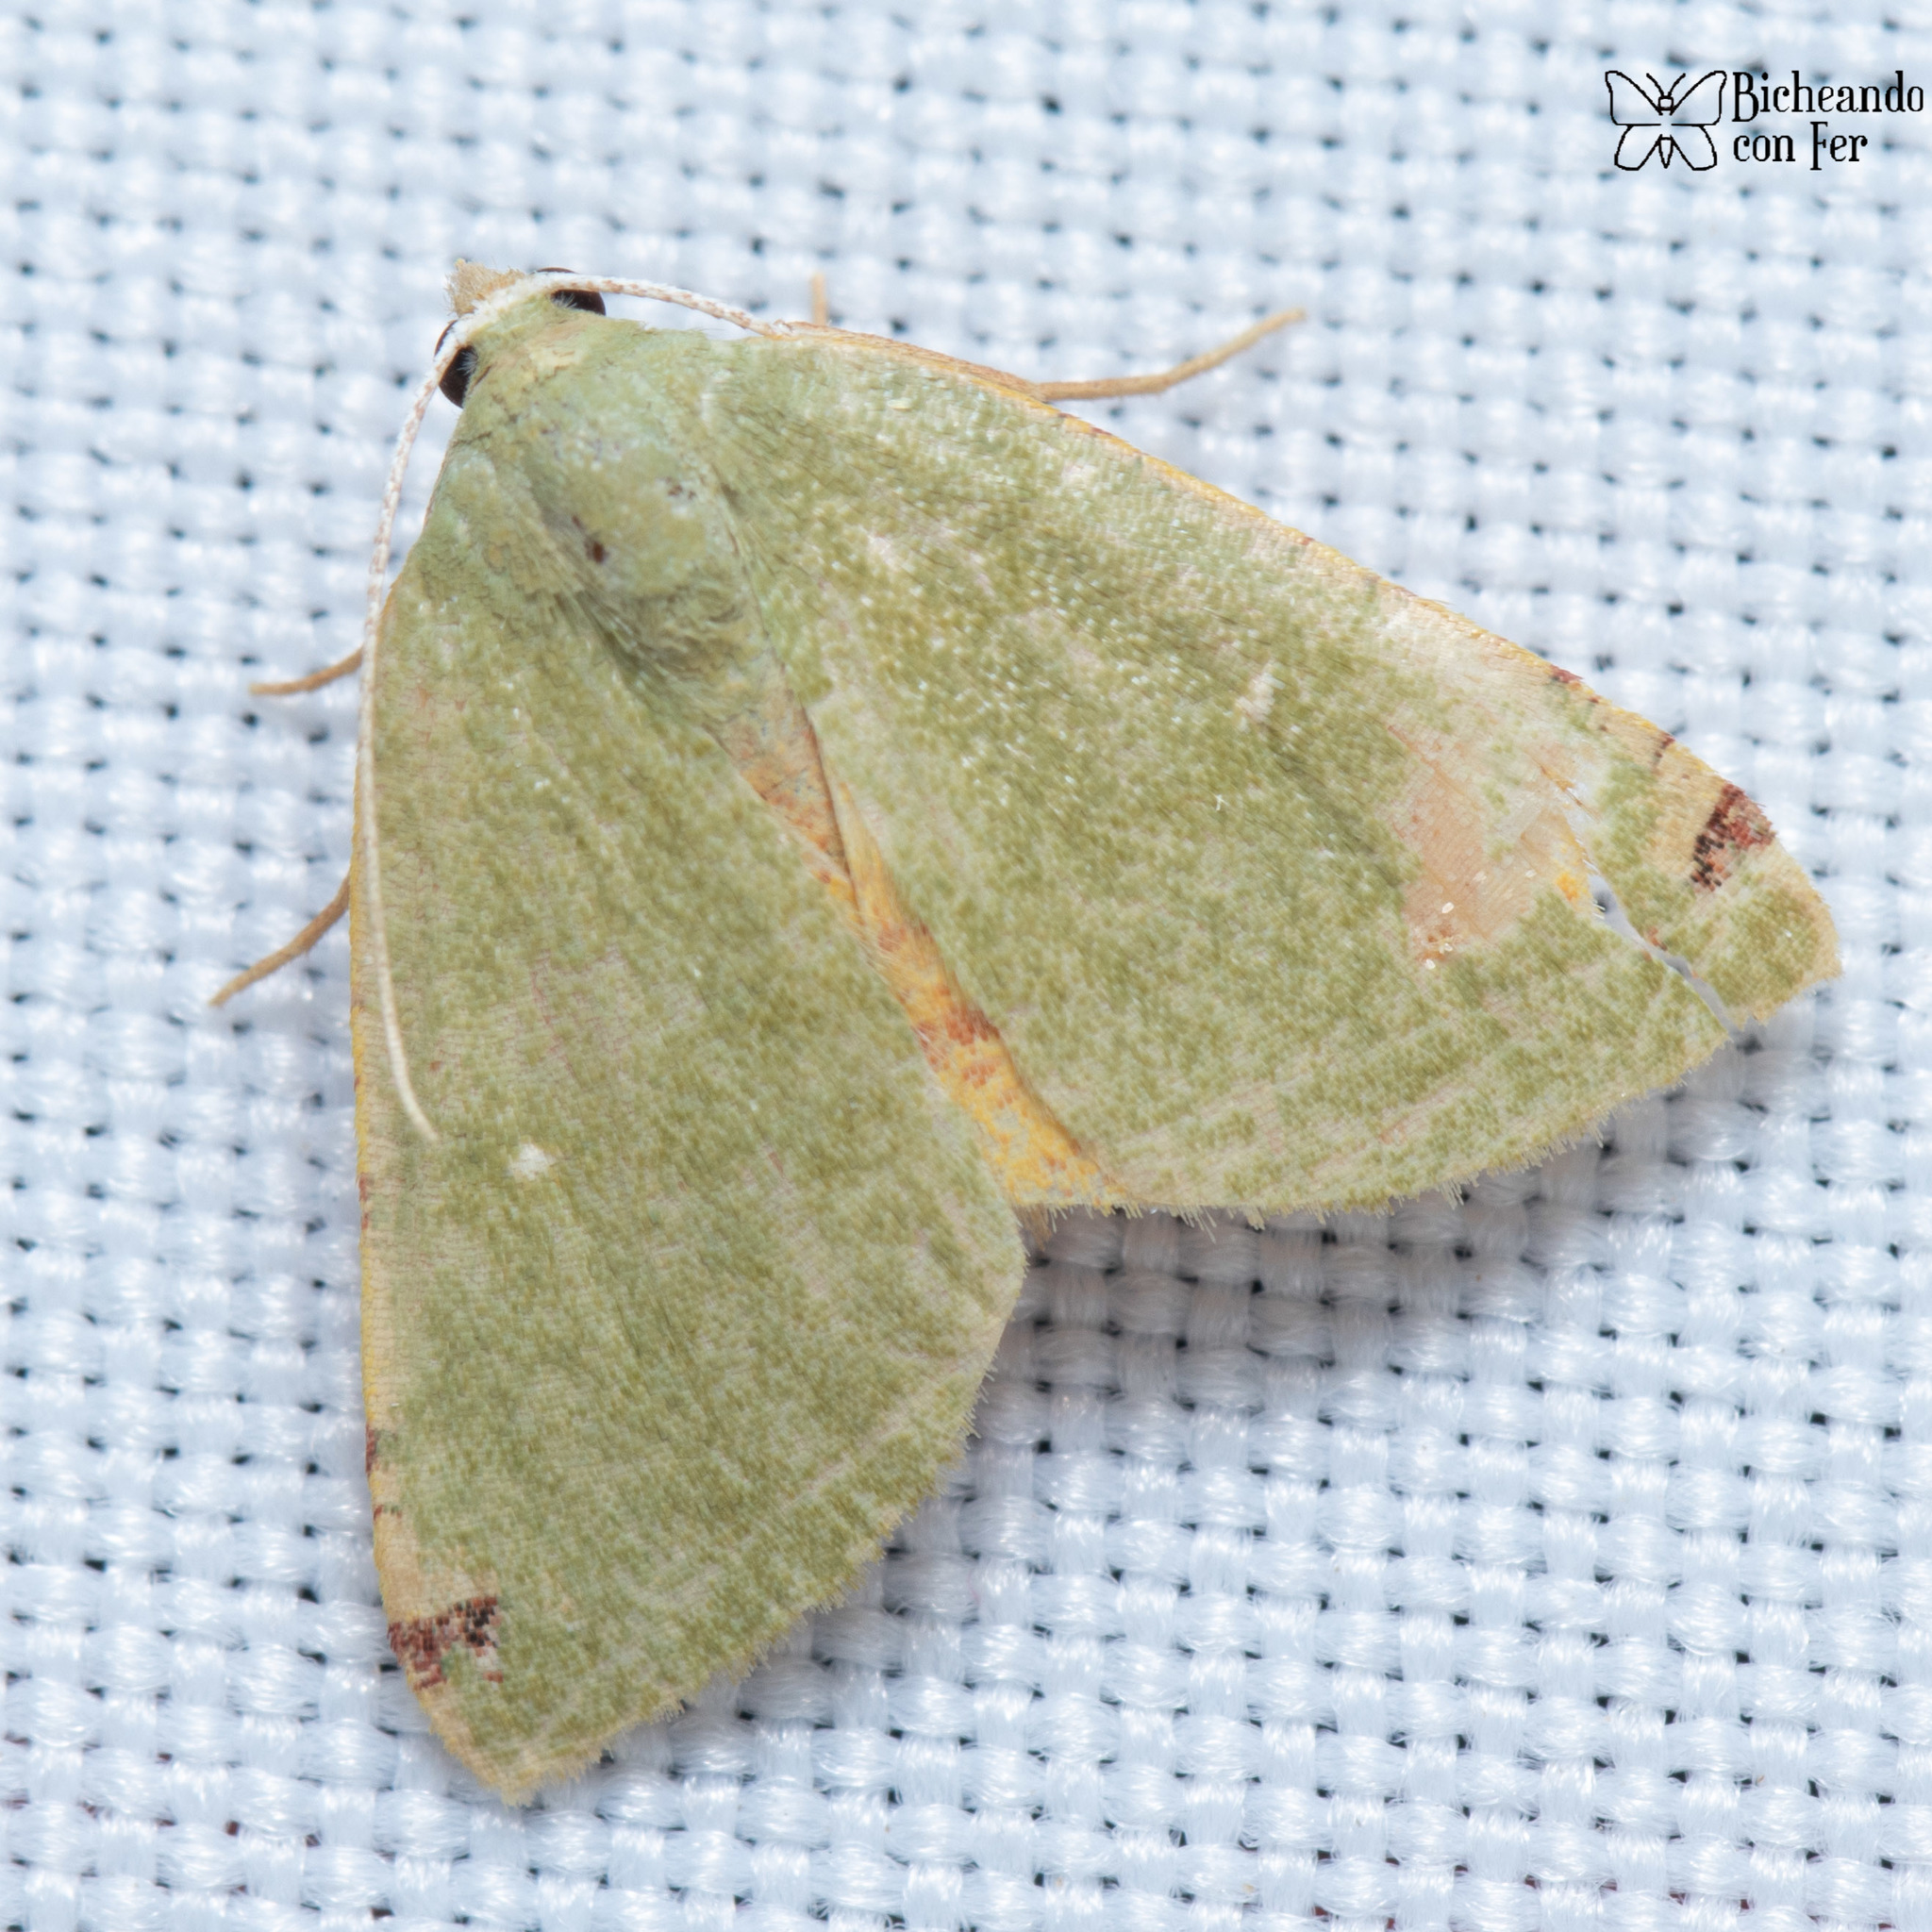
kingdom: Animalia
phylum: Arthropoda
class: Insecta
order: Lepidoptera
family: Geometridae
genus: Chloraspilates
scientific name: Chloraspilates bicoloraria
